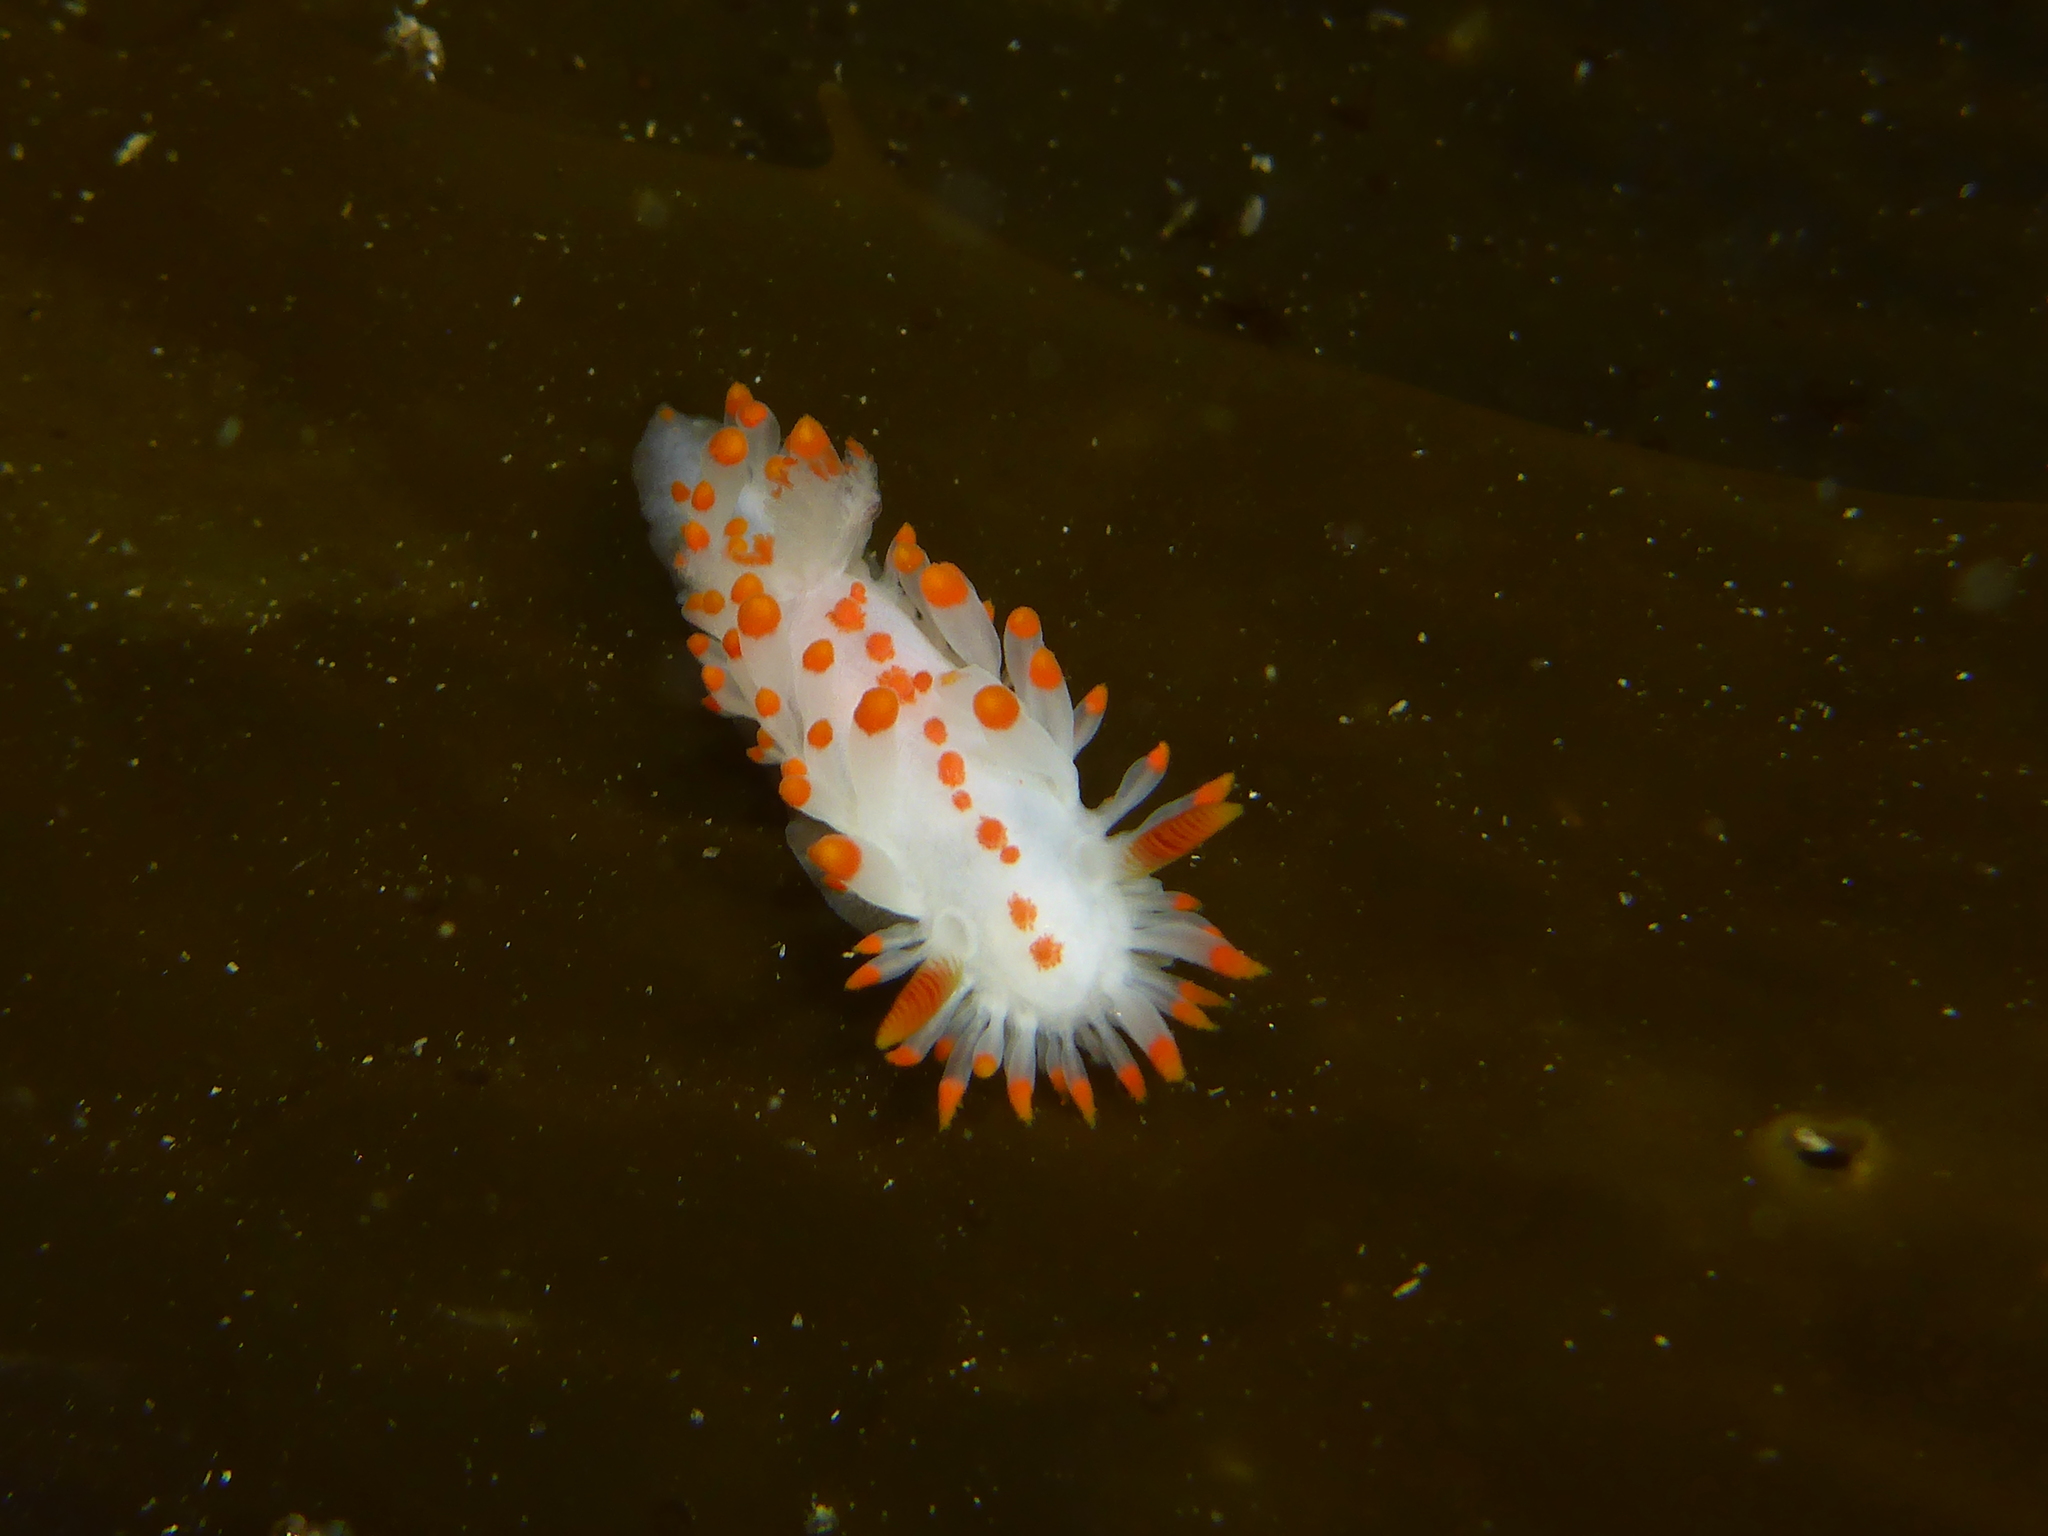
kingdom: Animalia
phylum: Mollusca
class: Gastropoda
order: Nudibranchia
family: Polyceridae
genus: Limacia
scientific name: Limacia mcdonaldi
